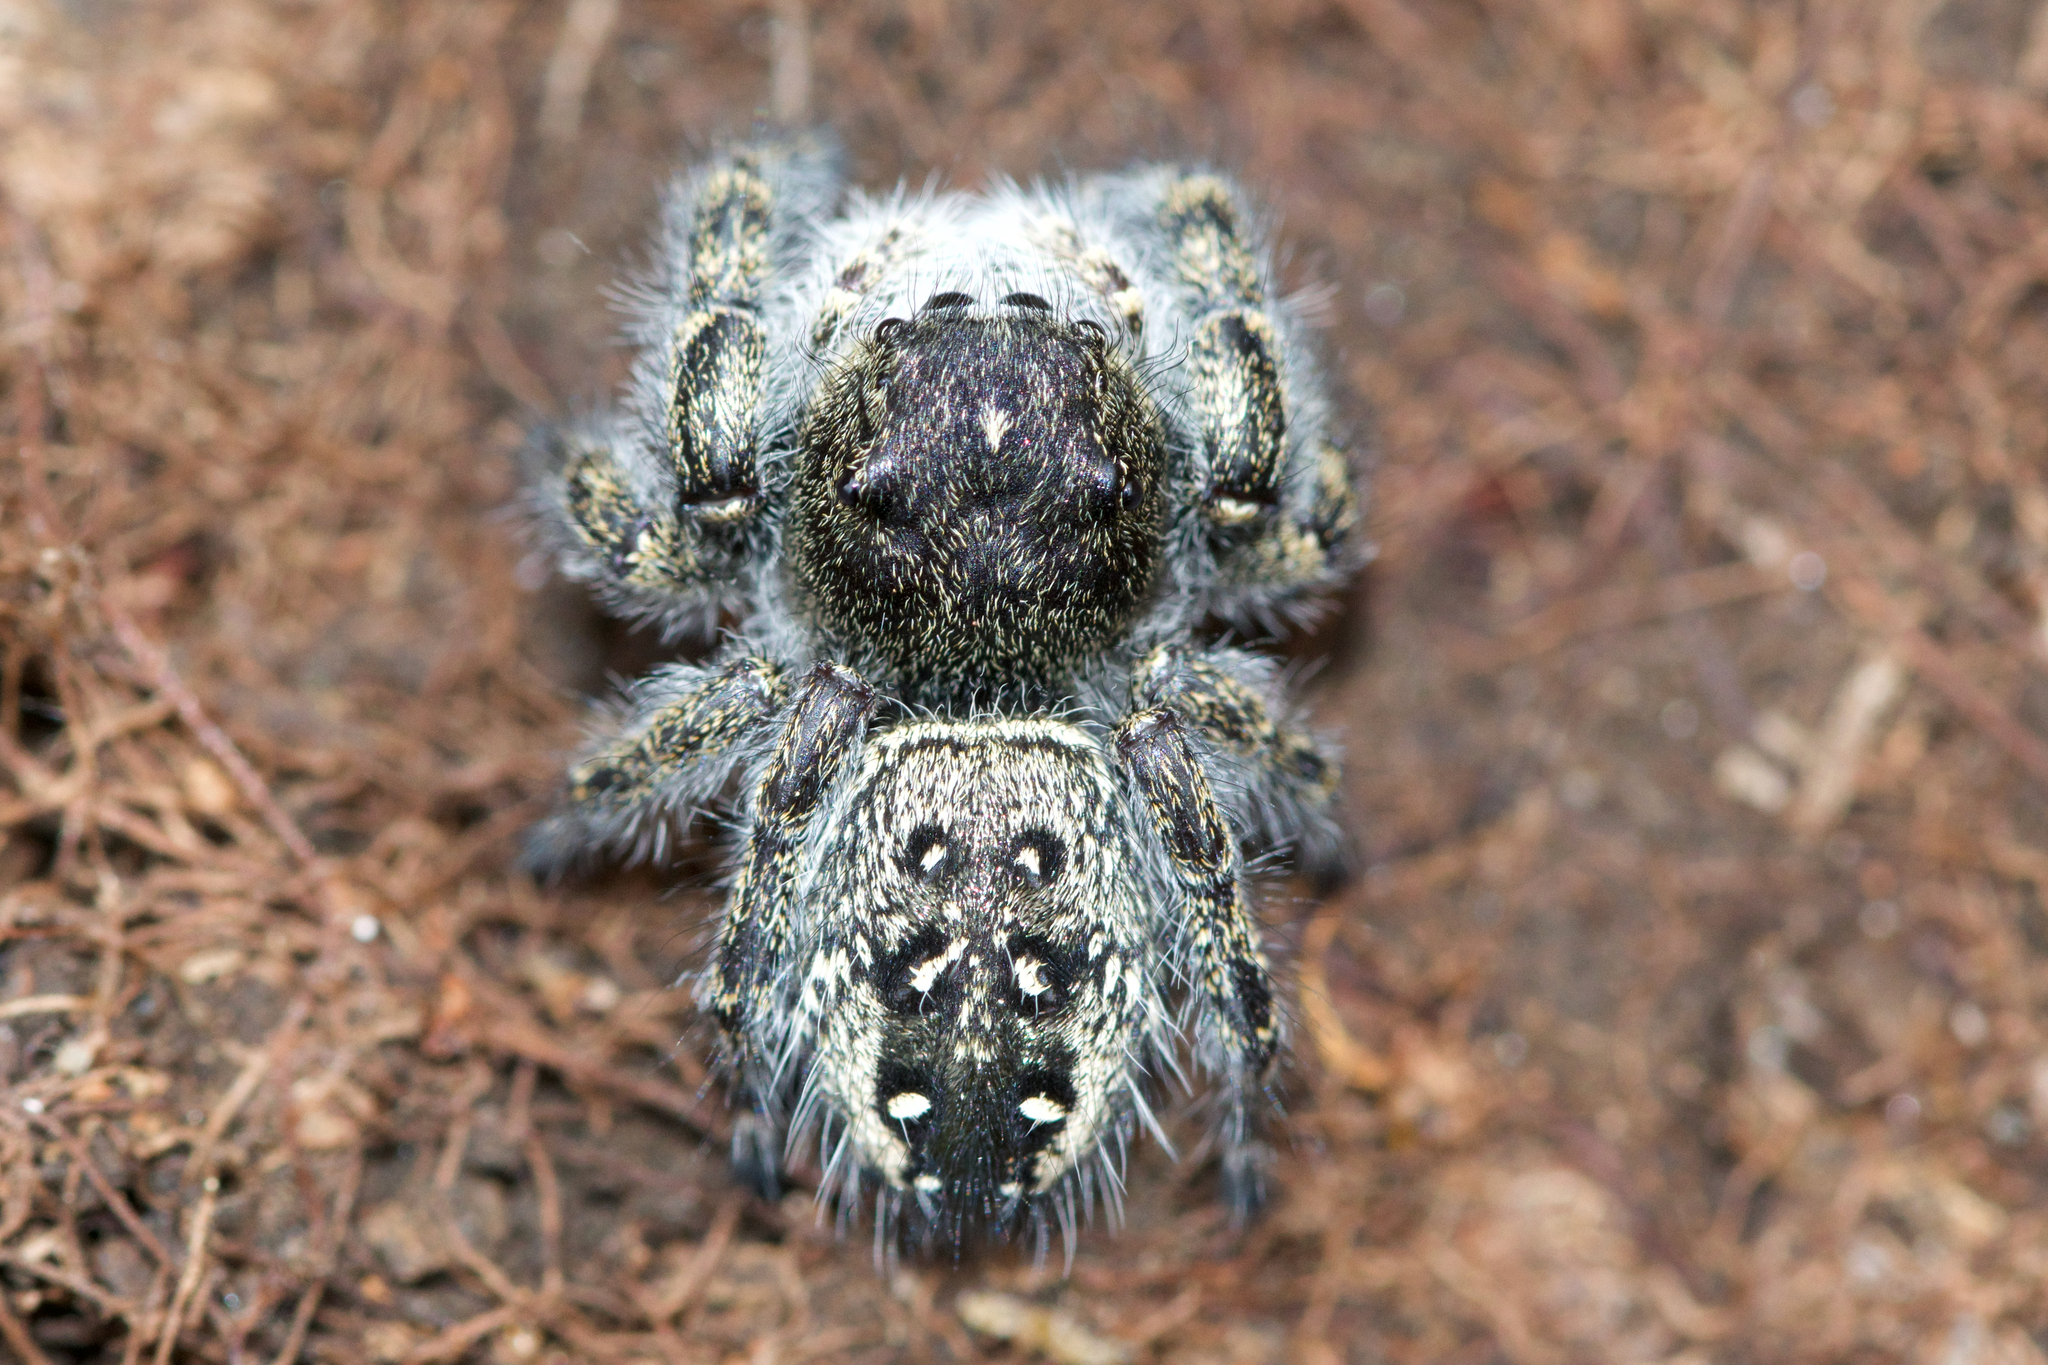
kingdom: Animalia
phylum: Arthropoda
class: Arachnida
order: Araneae
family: Salticidae
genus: Phidippus
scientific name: Phidippus purpuratus
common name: Marbled purple jumping spider
